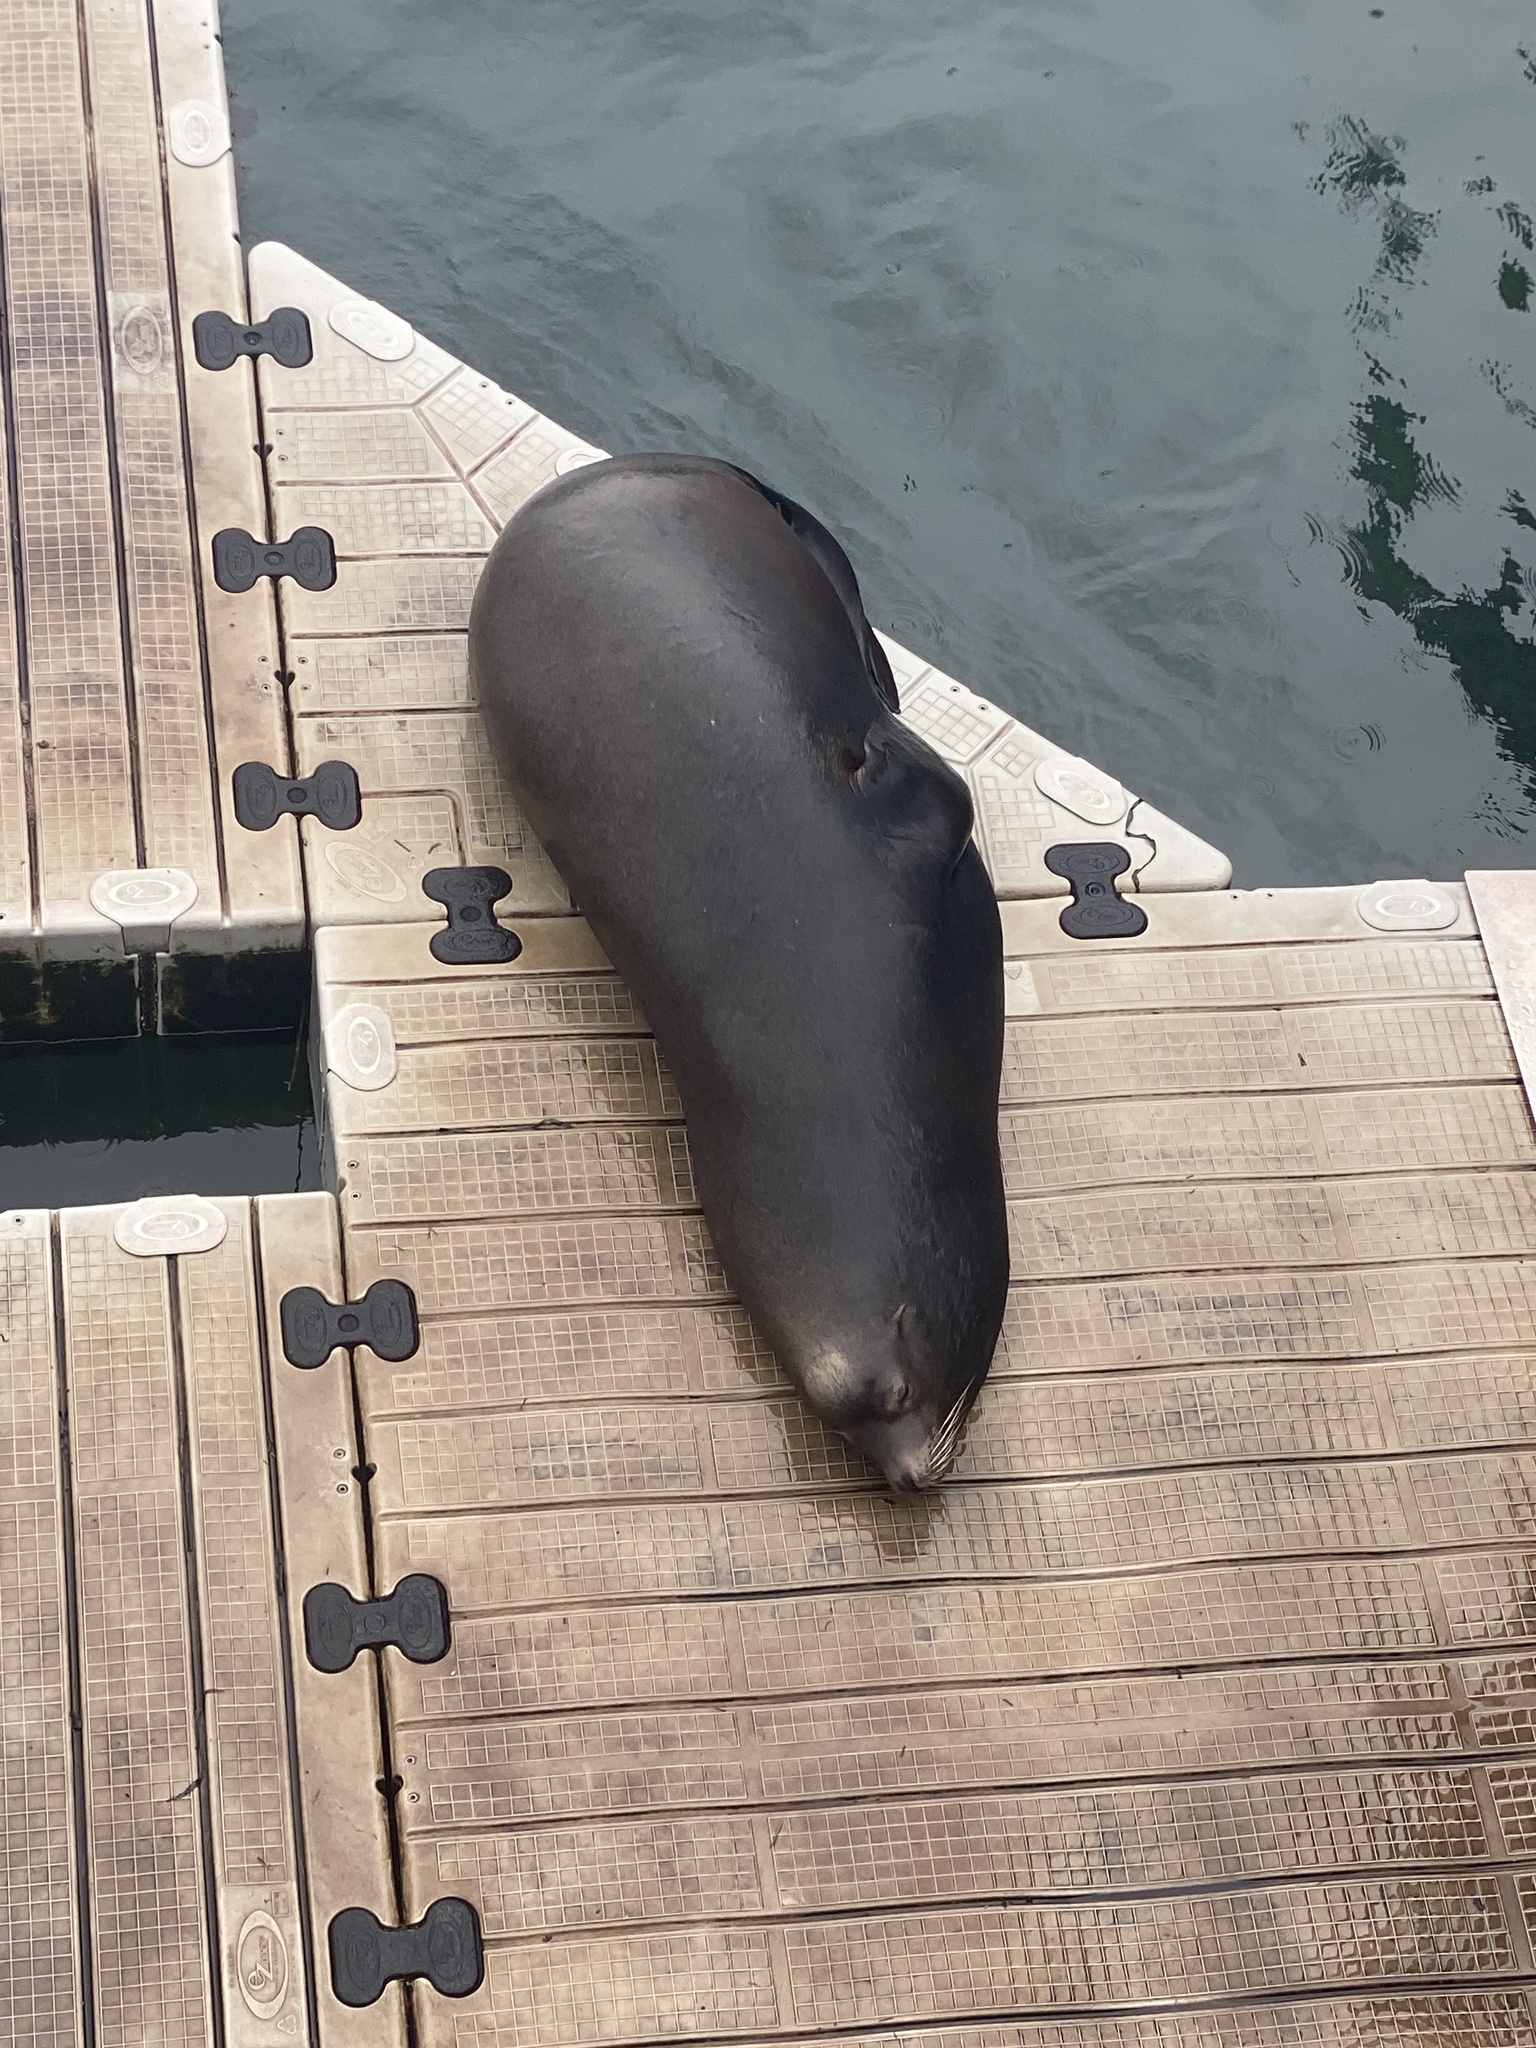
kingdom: Animalia
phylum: Chordata
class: Mammalia
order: Carnivora
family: Otariidae
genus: Zalophus
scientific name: Zalophus californianus
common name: California sea lion
